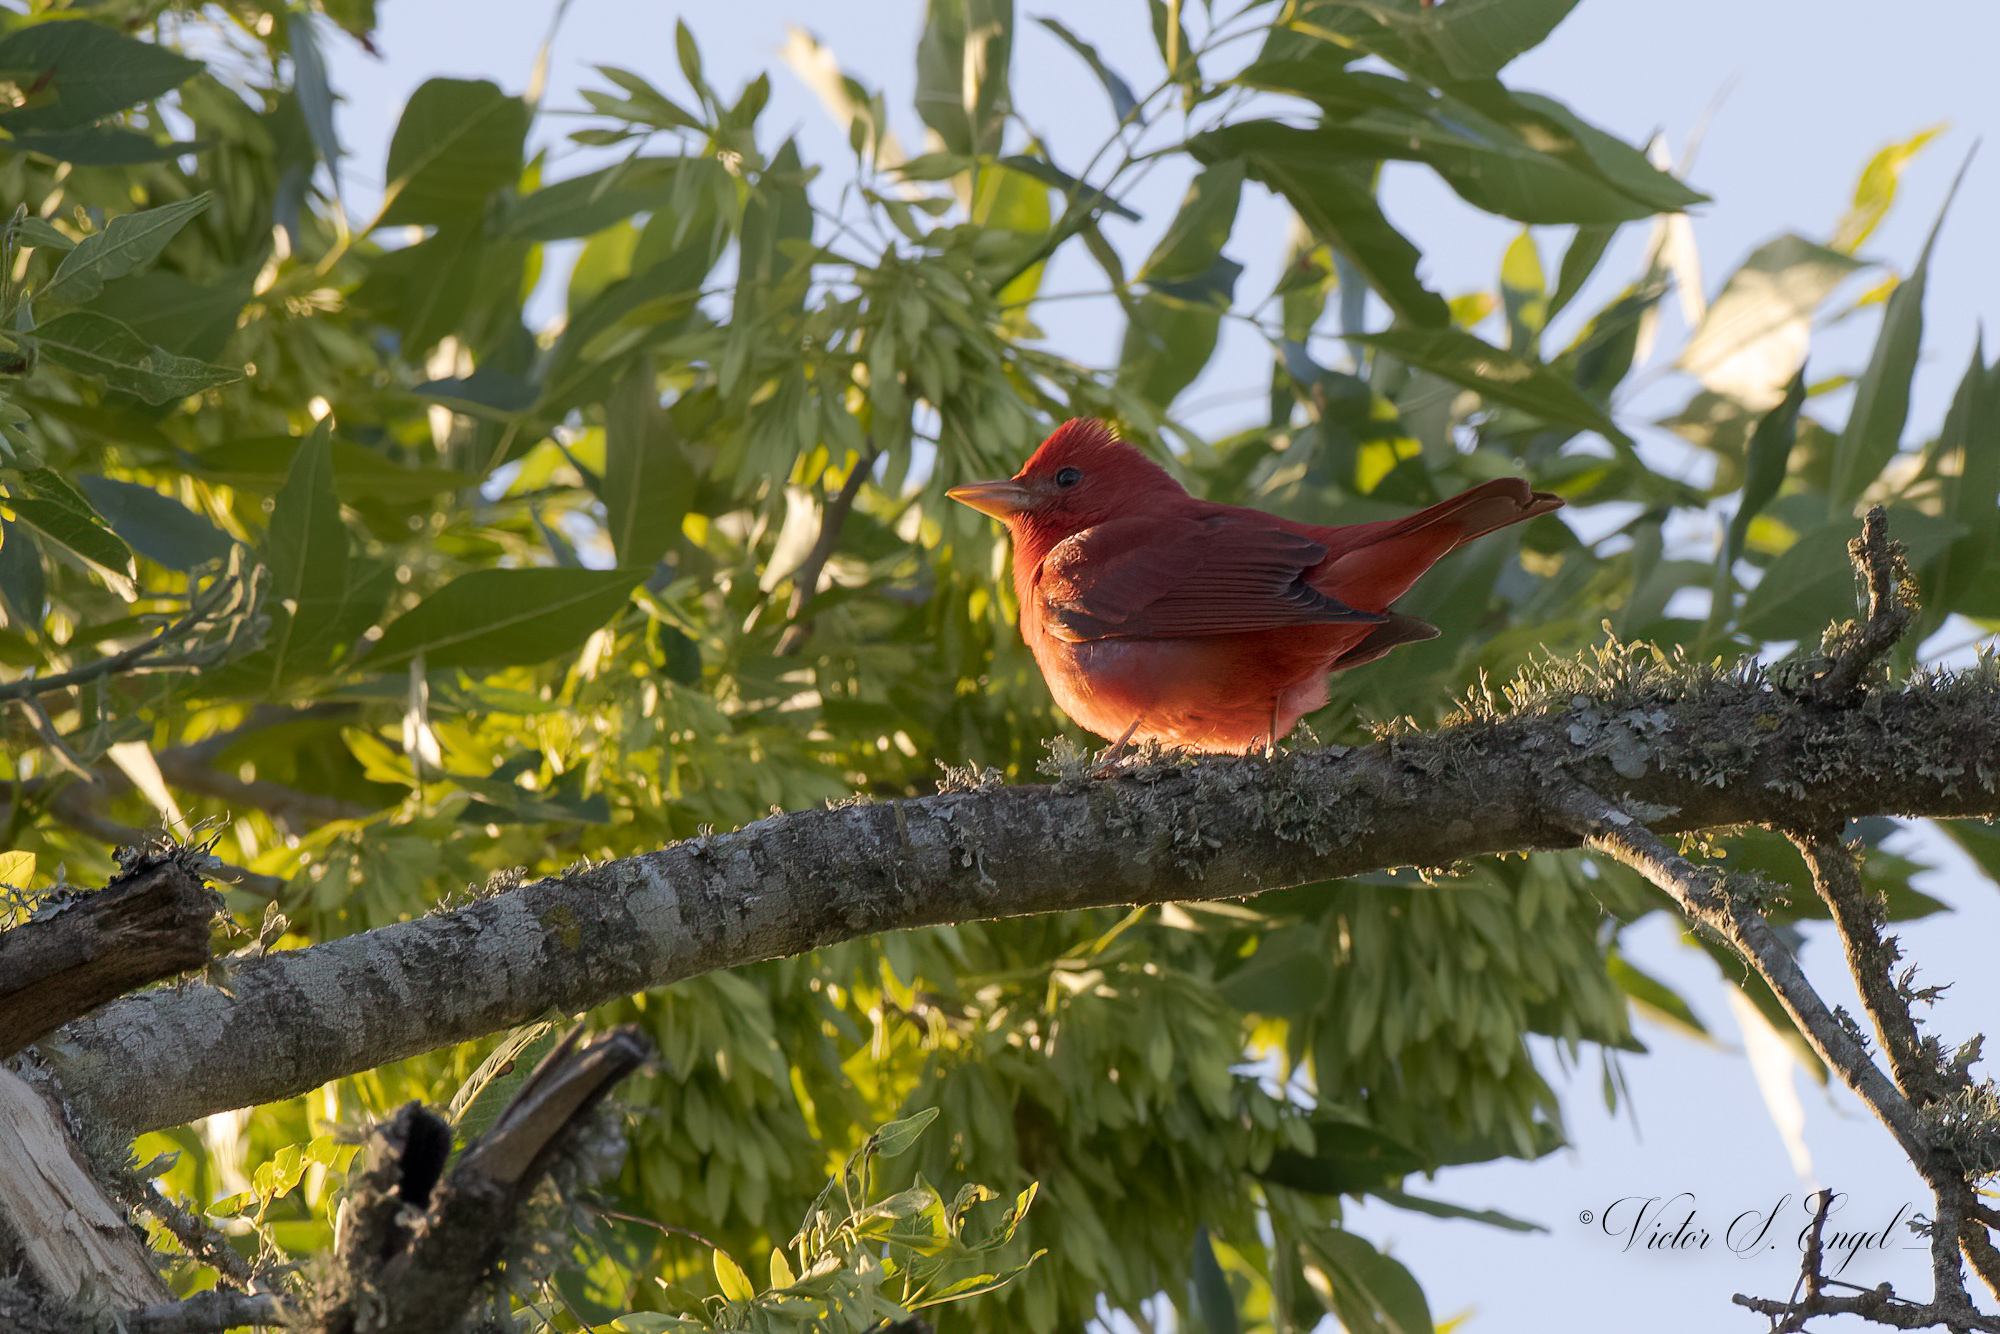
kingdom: Animalia
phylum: Chordata
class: Aves
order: Passeriformes
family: Cardinalidae
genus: Piranga
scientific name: Piranga rubra
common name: Summer tanager
